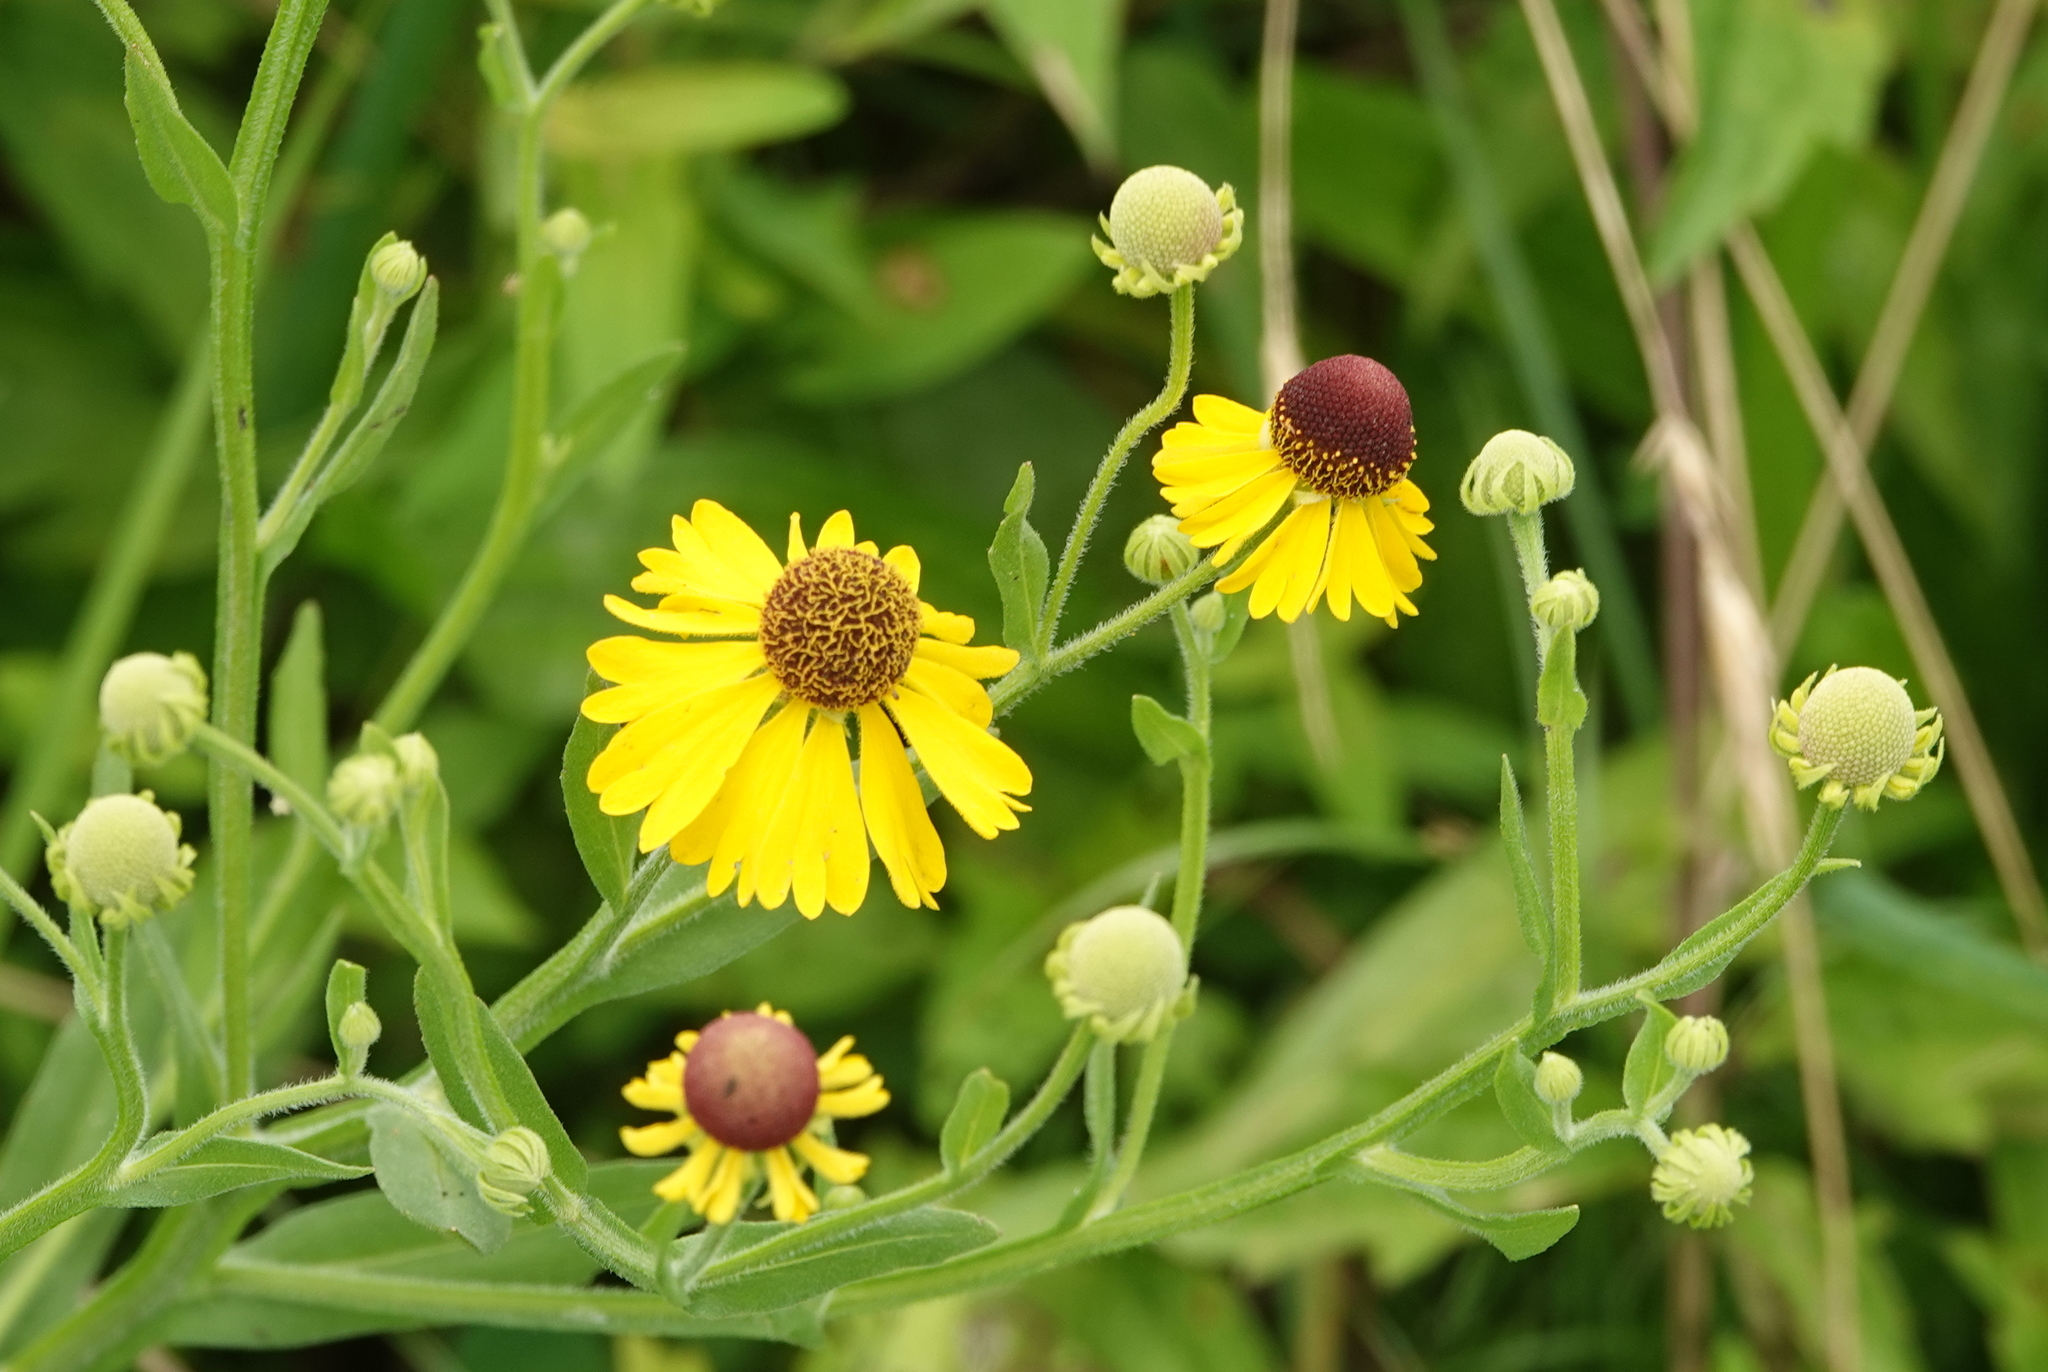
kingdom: Plantae
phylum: Tracheophyta
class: Magnoliopsida
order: Asterales
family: Asteraceae
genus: Helenium
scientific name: Helenium flexuosum
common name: Naked-flowered sneezeweed
